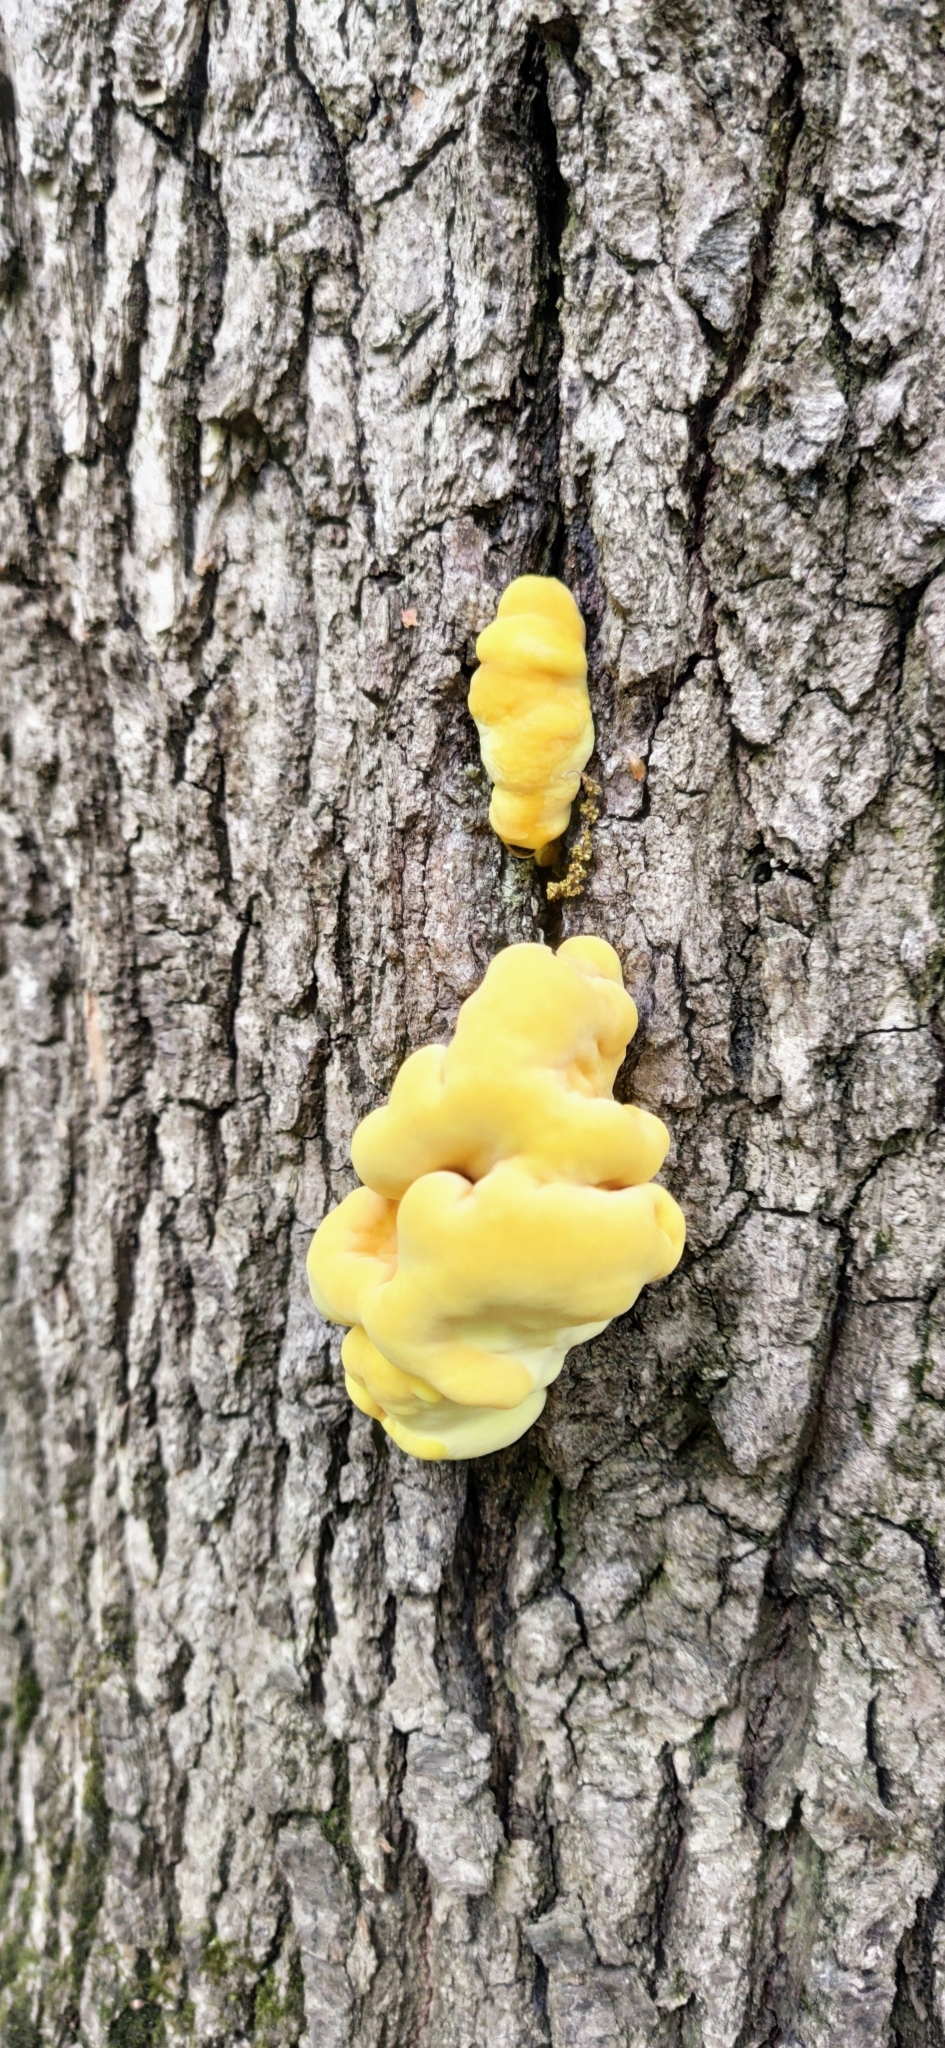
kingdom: Fungi
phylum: Basidiomycota
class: Agaricomycetes
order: Polyporales
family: Laetiporaceae
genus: Laetiporus
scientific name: Laetiporus sulphureus
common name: Chicken of the woods
